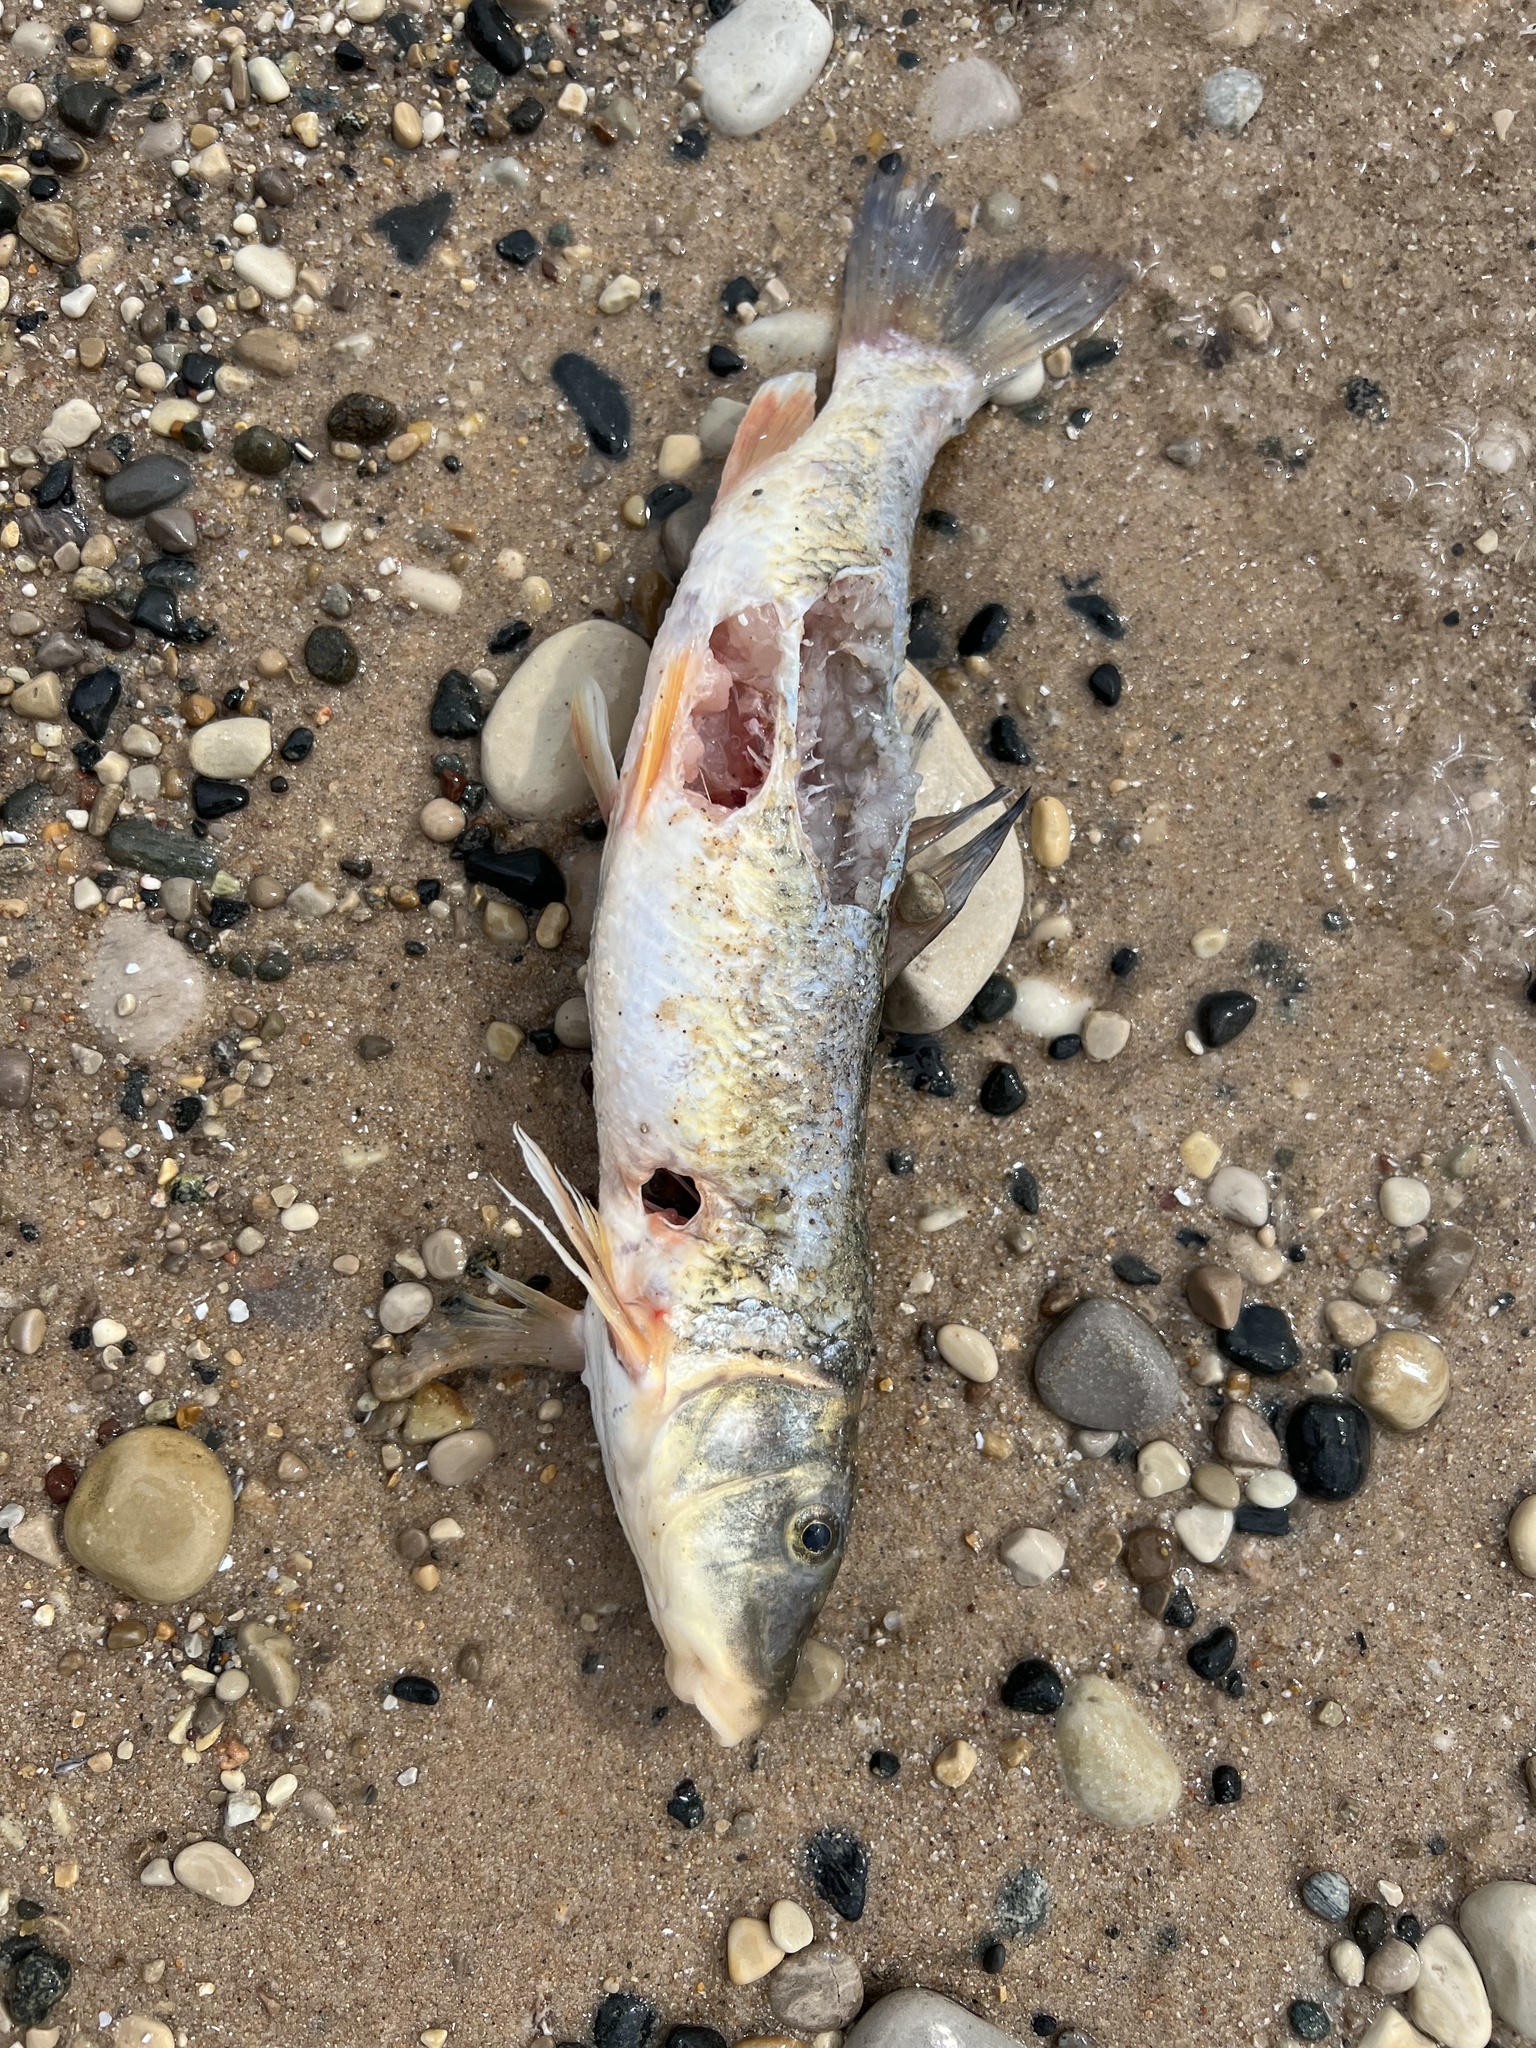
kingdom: Animalia
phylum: Chordata
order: Cypriniformes
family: Catostomidae
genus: Catostomus
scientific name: Catostomus commersonii
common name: White sucker
